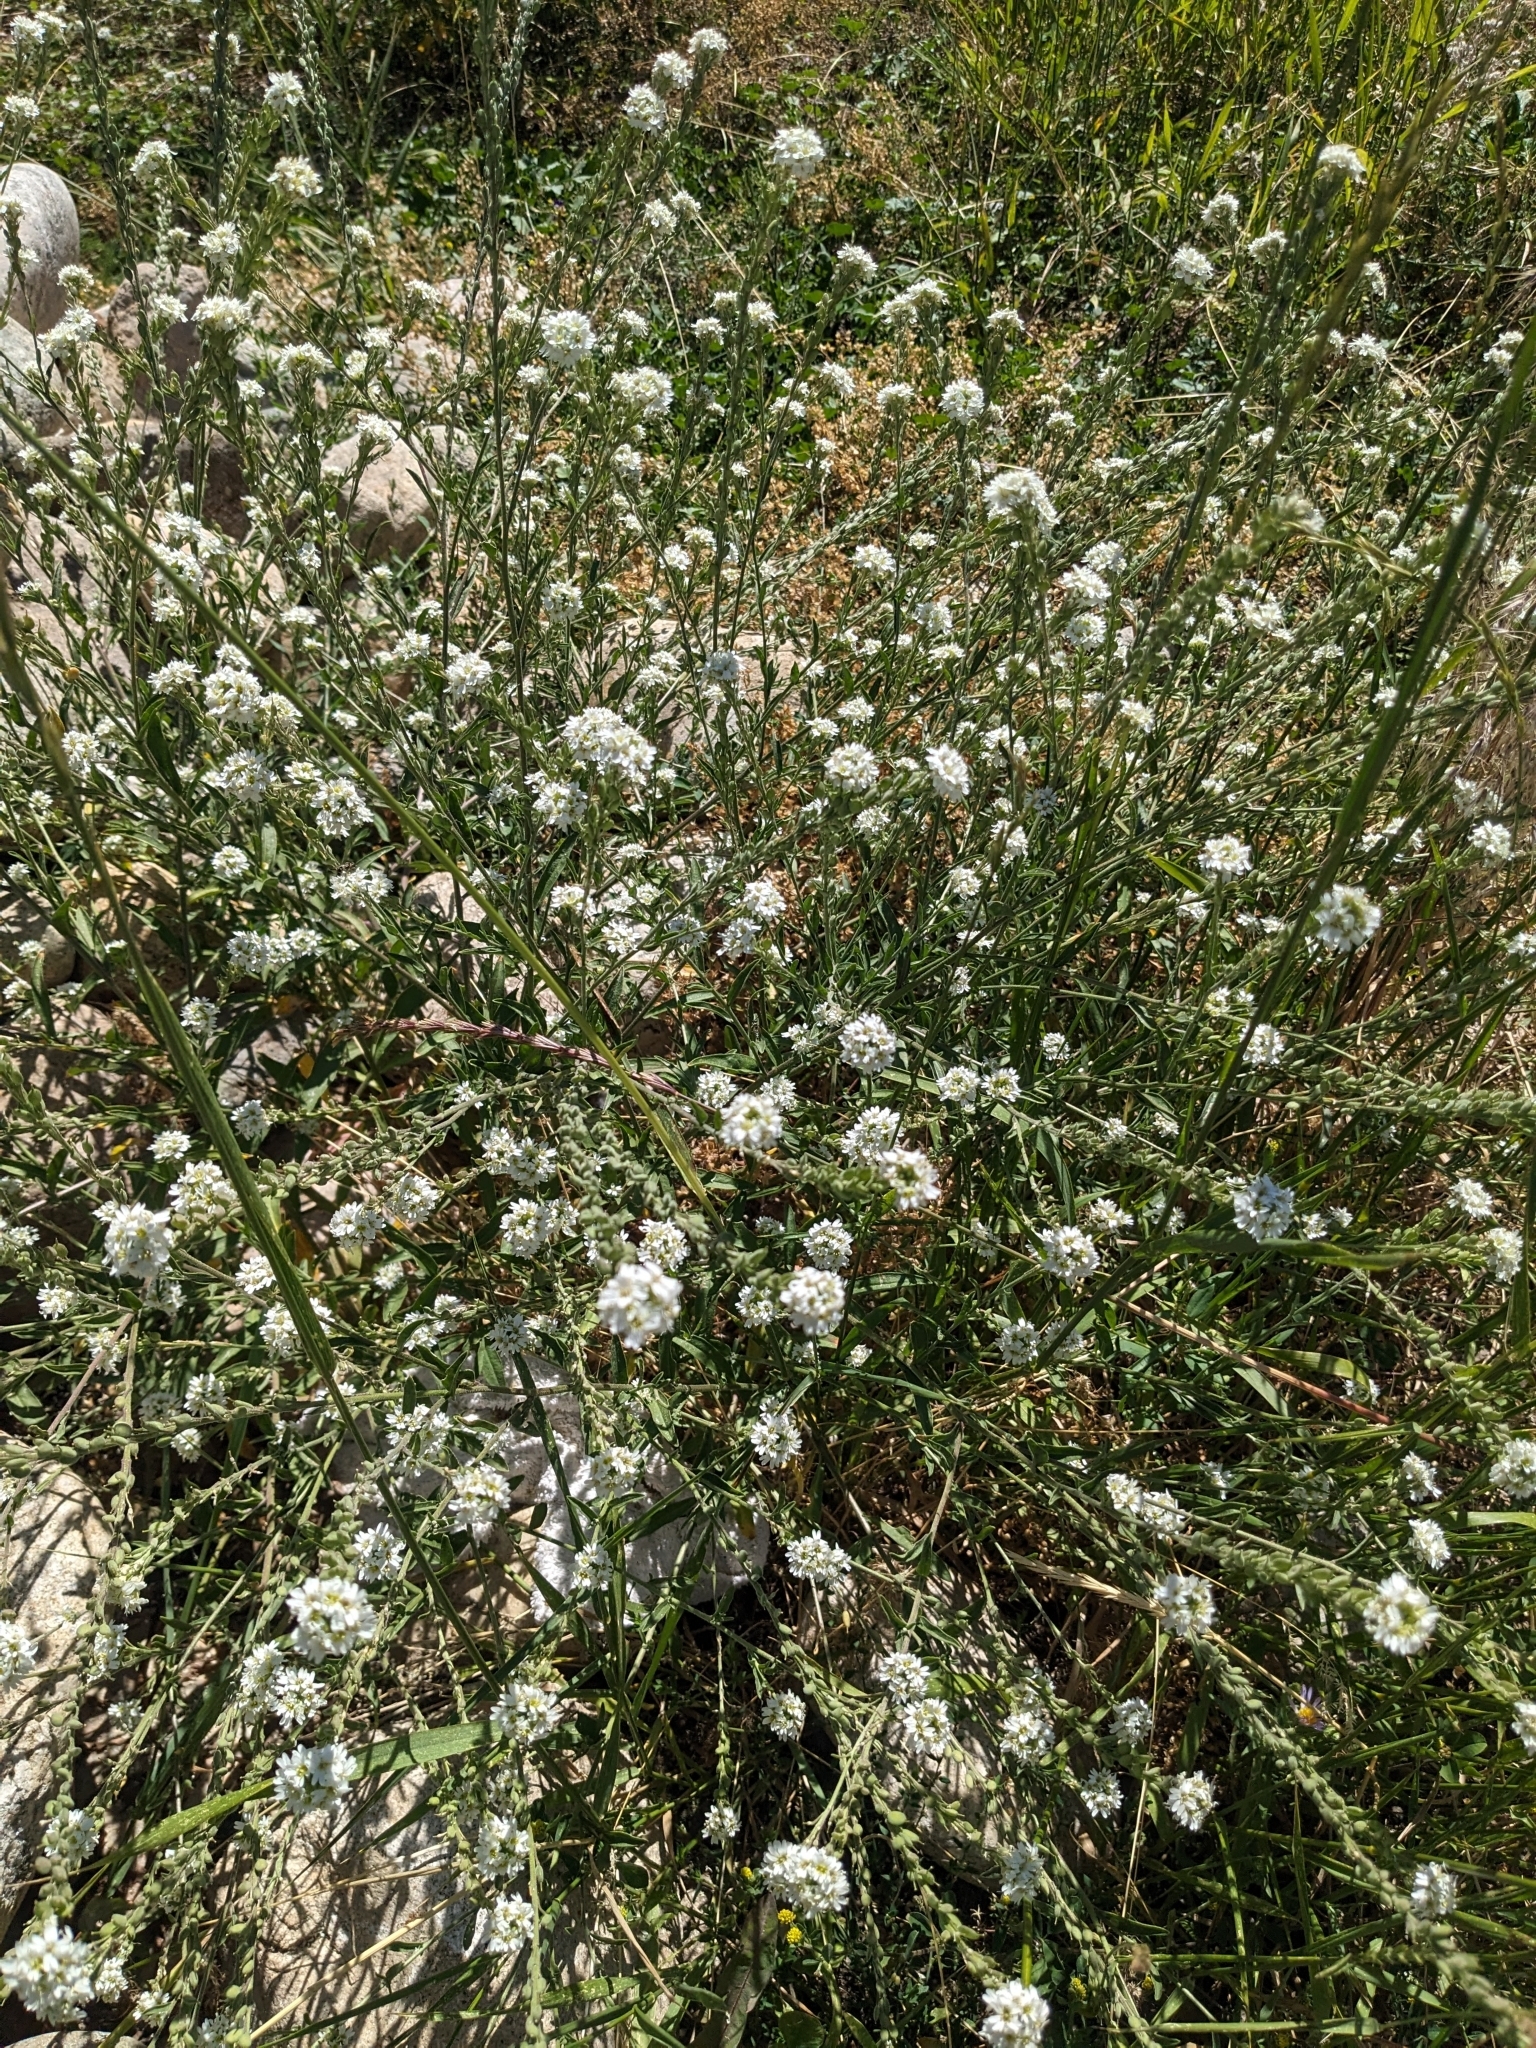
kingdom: Plantae
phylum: Tracheophyta
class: Magnoliopsida
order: Brassicales
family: Brassicaceae
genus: Berteroa
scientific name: Berteroa incana
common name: Hoary alison
